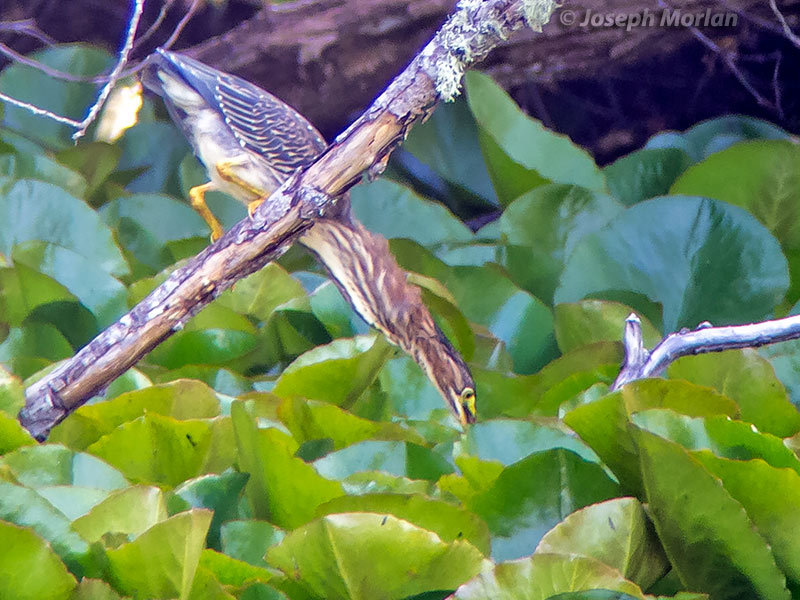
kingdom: Animalia
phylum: Chordata
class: Aves
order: Pelecaniformes
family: Ardeidae
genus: Butorides
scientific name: Butorides virescens
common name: Green heron
